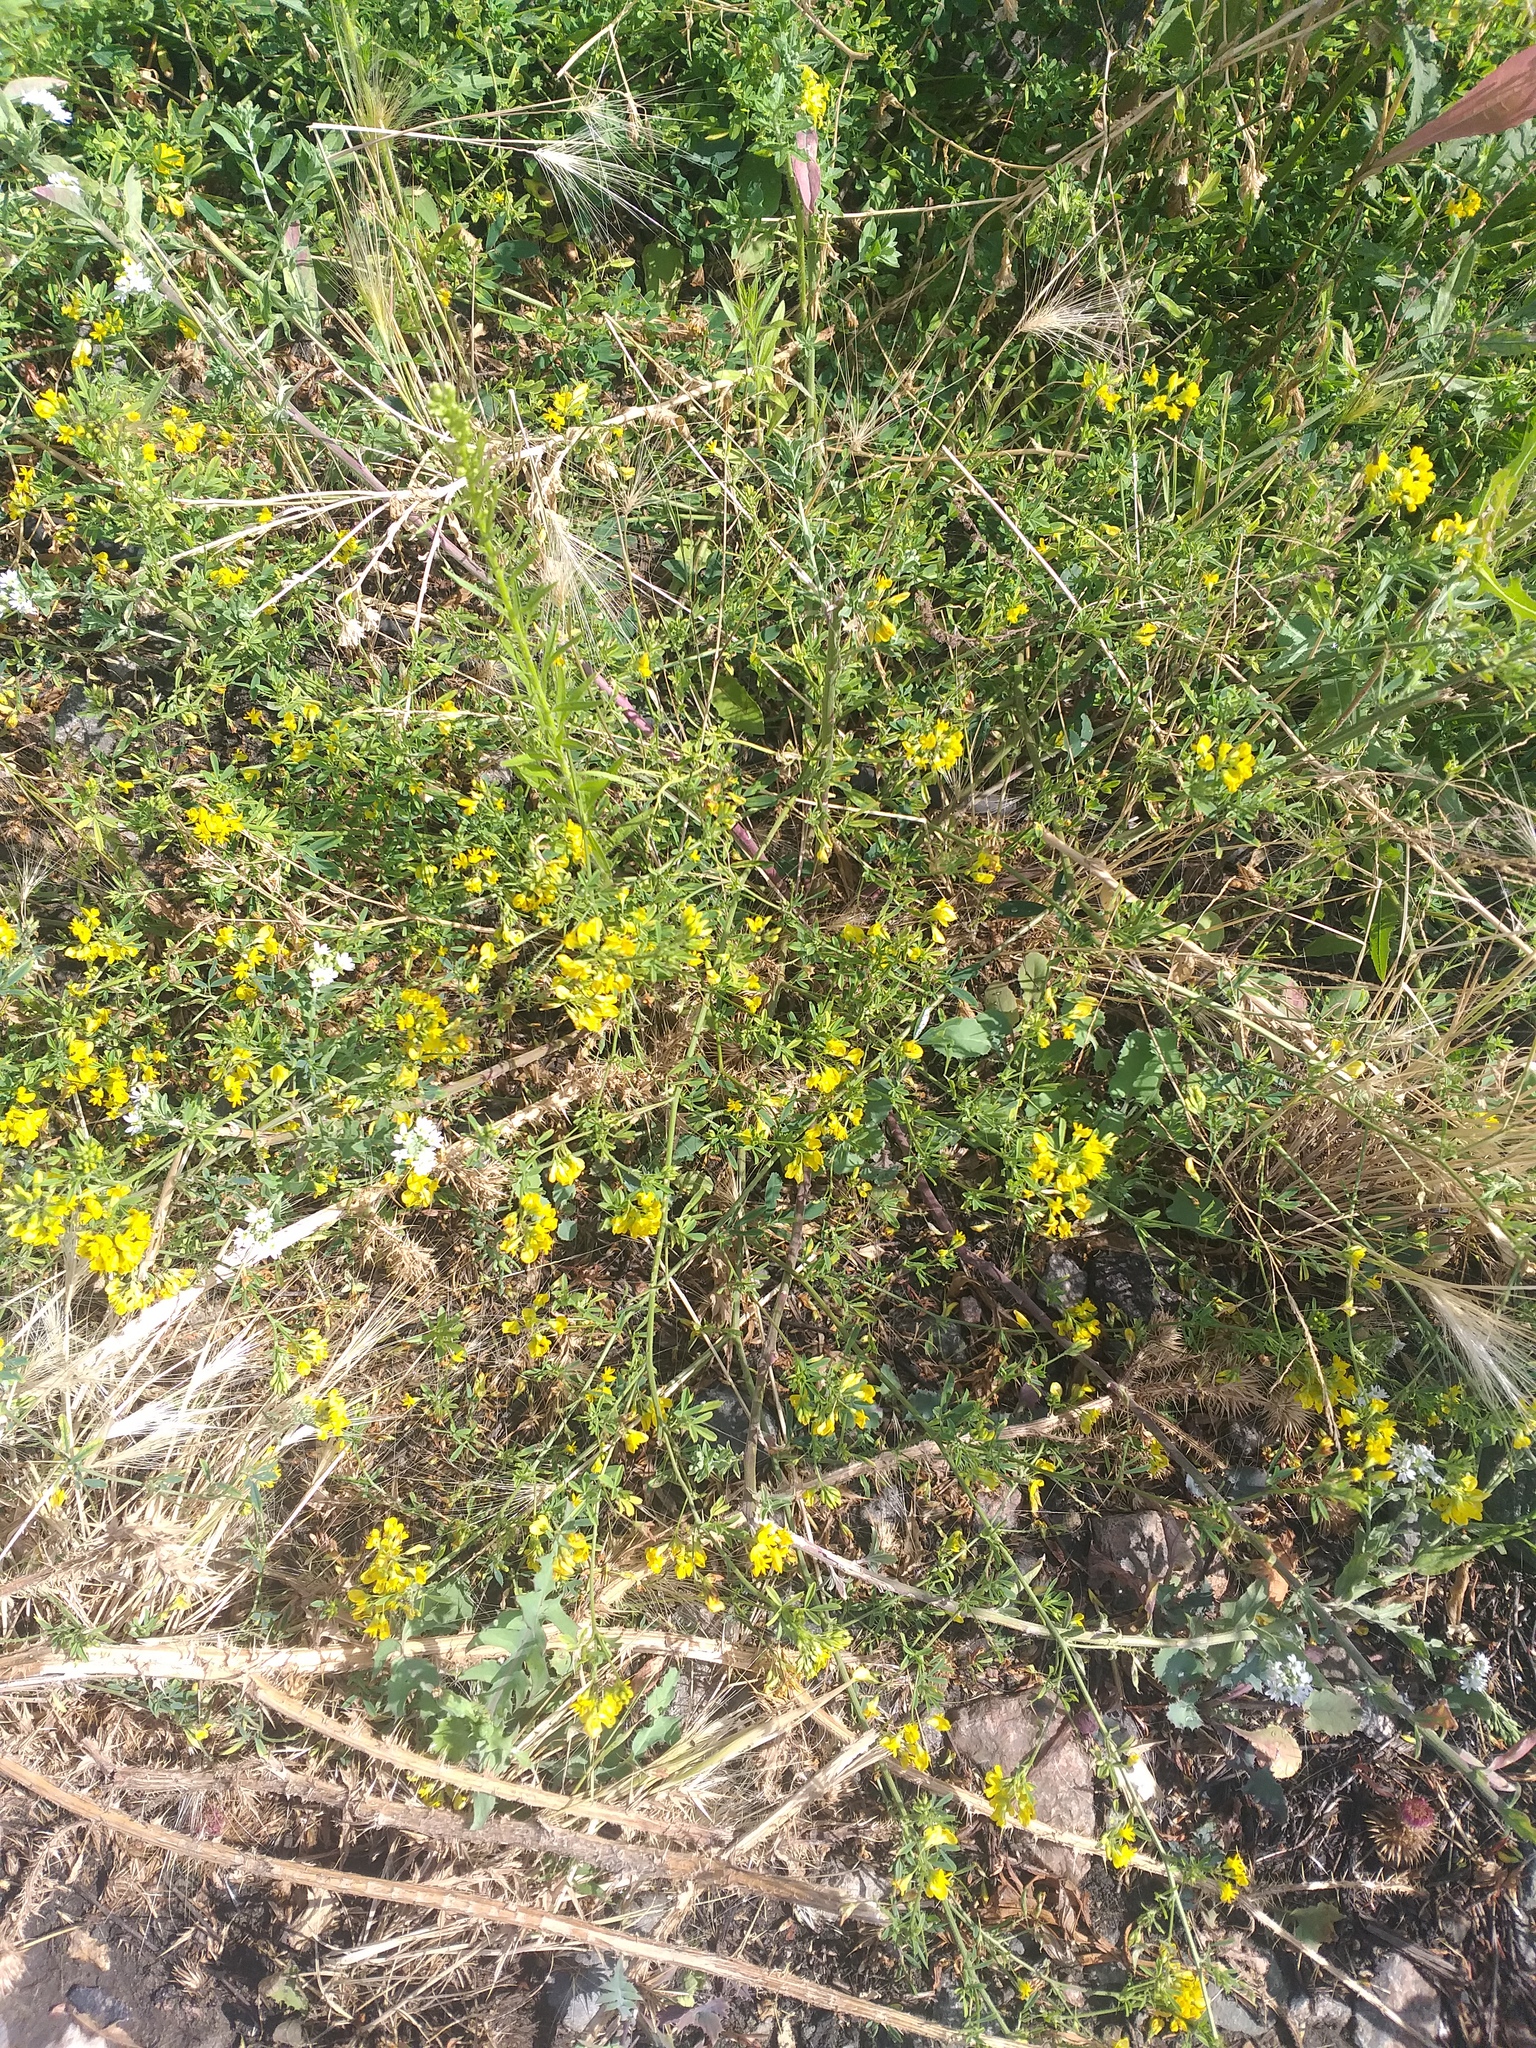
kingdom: Plantae
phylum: Tracheophyta
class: Magnoliopsida
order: Fabales
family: Fabaceae
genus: Medicago
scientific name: Medicago falcata
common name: Sickle medick
